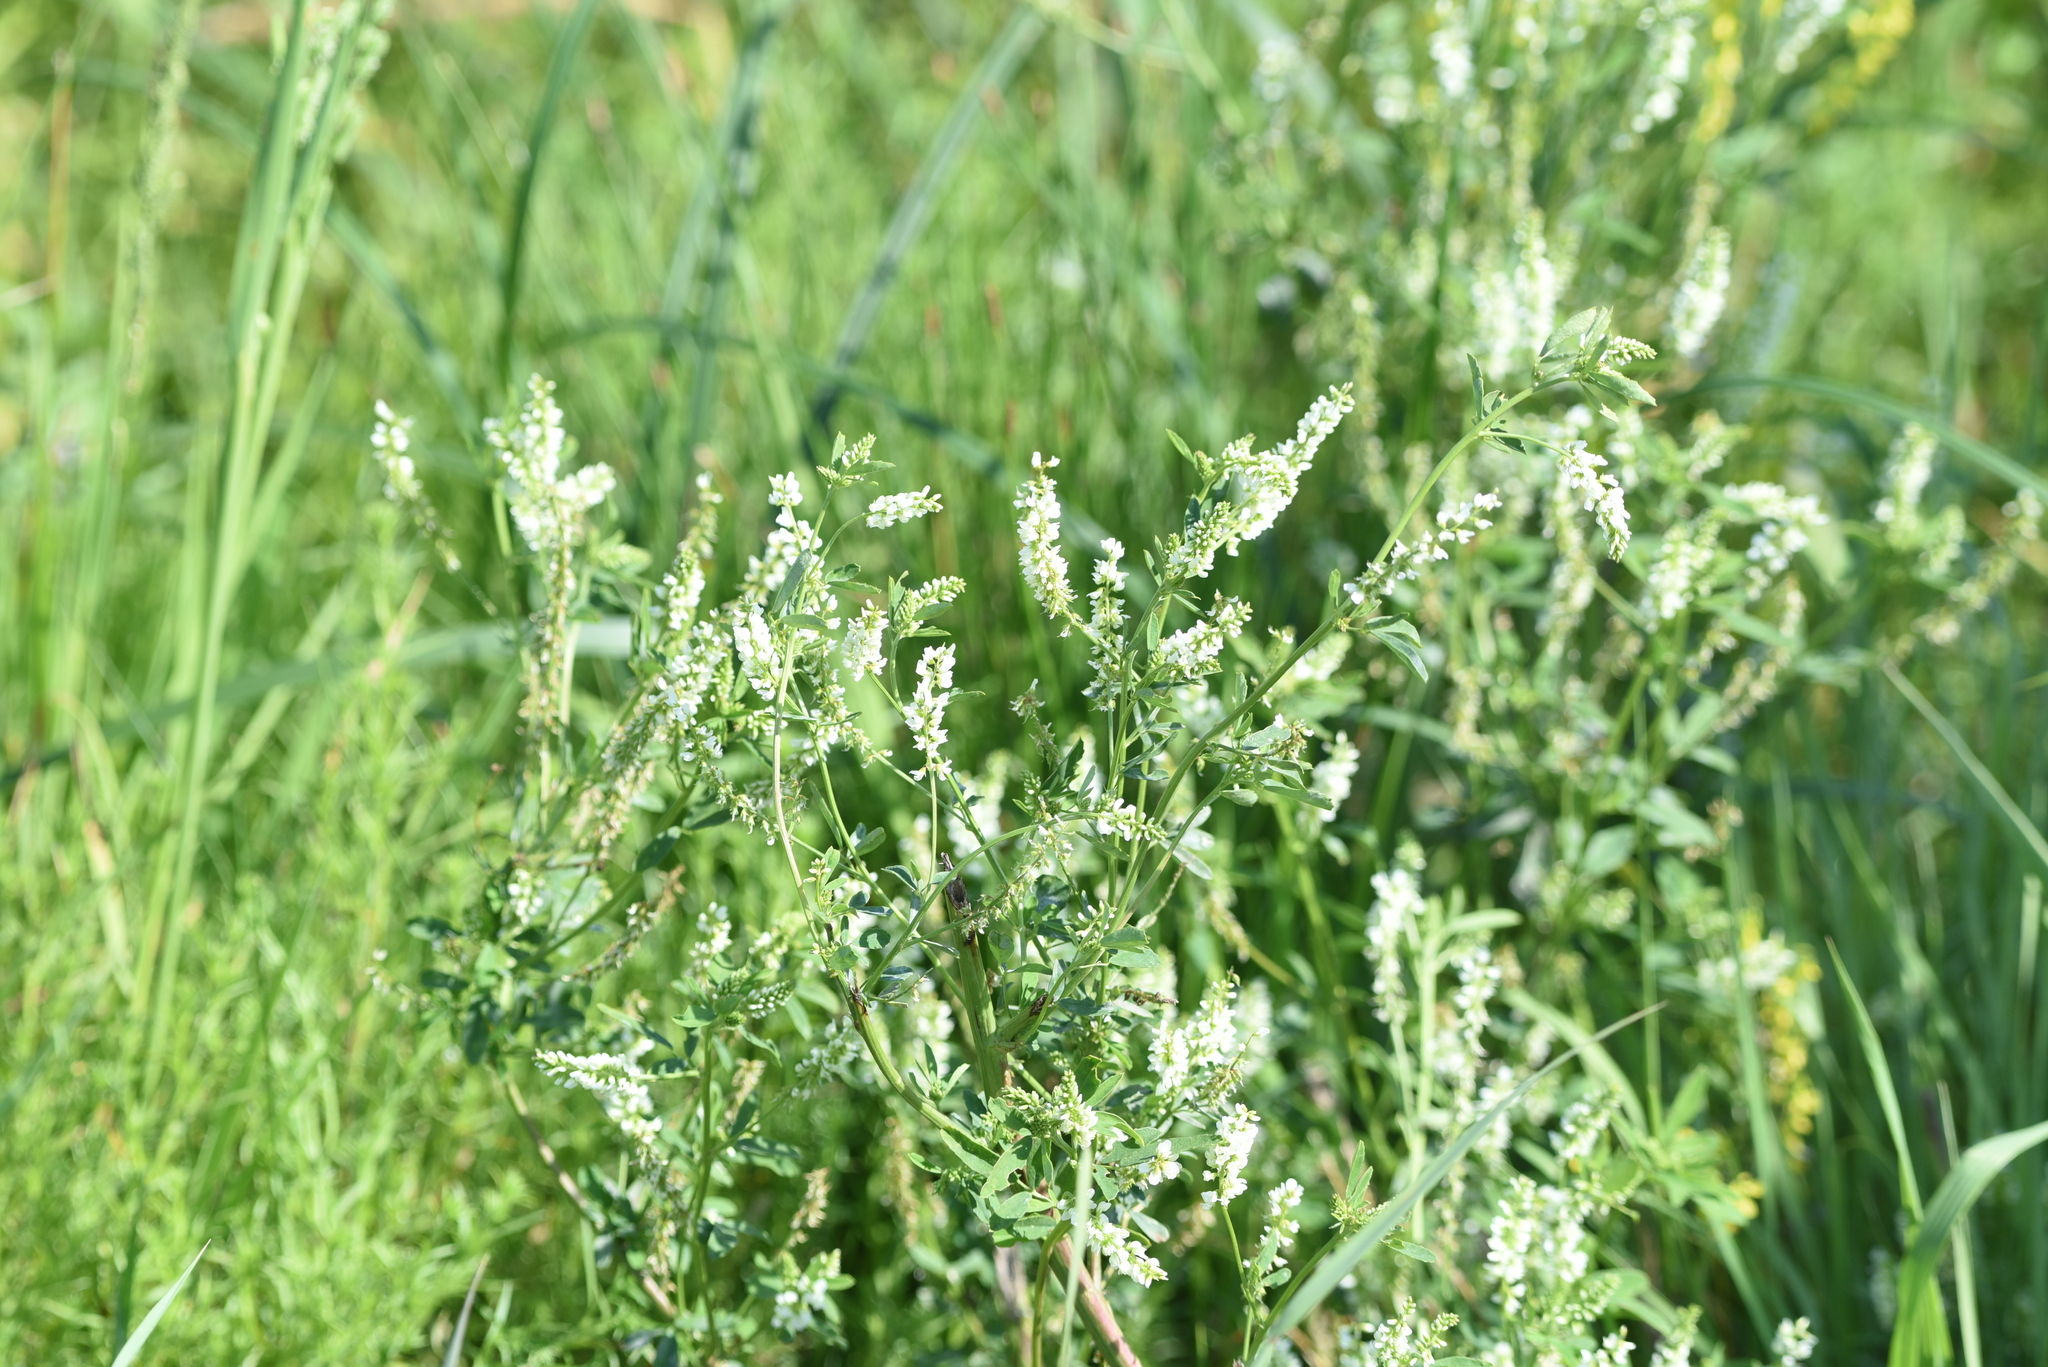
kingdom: Plantae
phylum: Tracheophyta
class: Magnoliopsida
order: Fabales
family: Fabaceae
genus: Melilotus
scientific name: Melilotus albus
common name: White melilot
